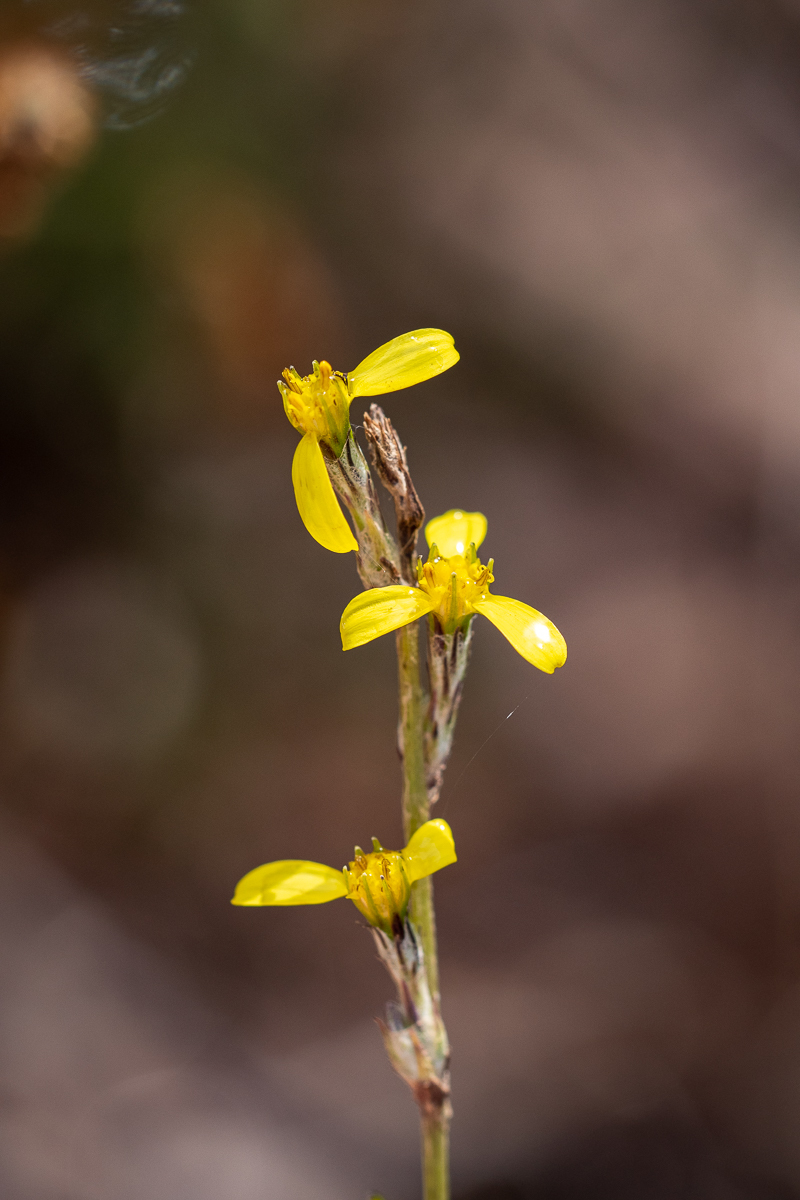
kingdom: Plantae
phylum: Tracheophyta
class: Magnoliopsida
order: Asterales
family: Asteraceae
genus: Senecio
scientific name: Senecio pubigerus
